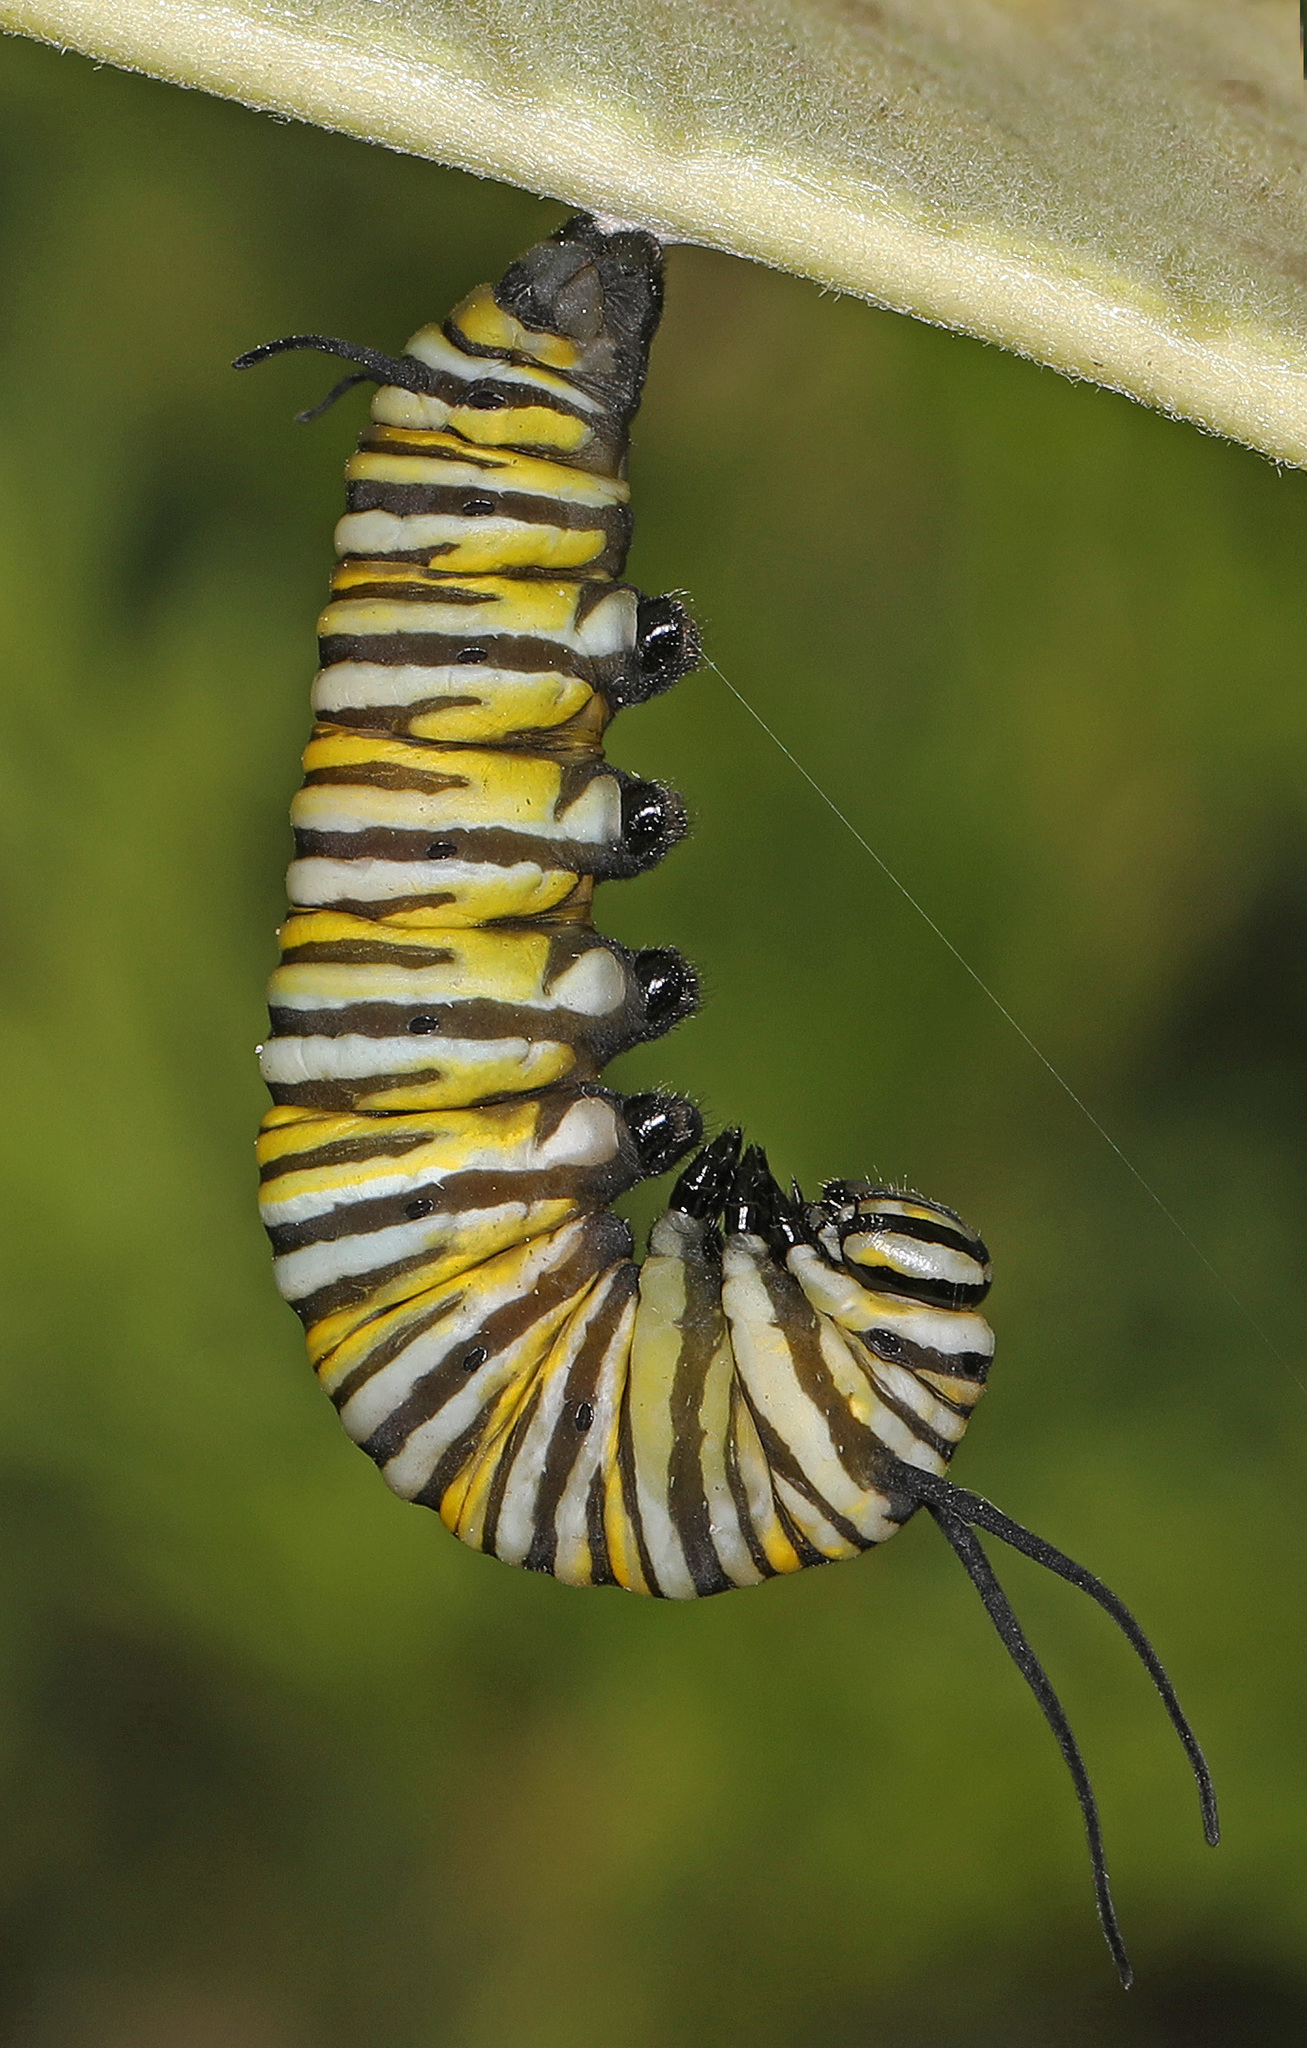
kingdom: Animalia
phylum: Arthropoda
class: Insecta
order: Lepidoptera
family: Nymphalidae
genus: Danaus
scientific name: Danaus plexippus
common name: Monarch
